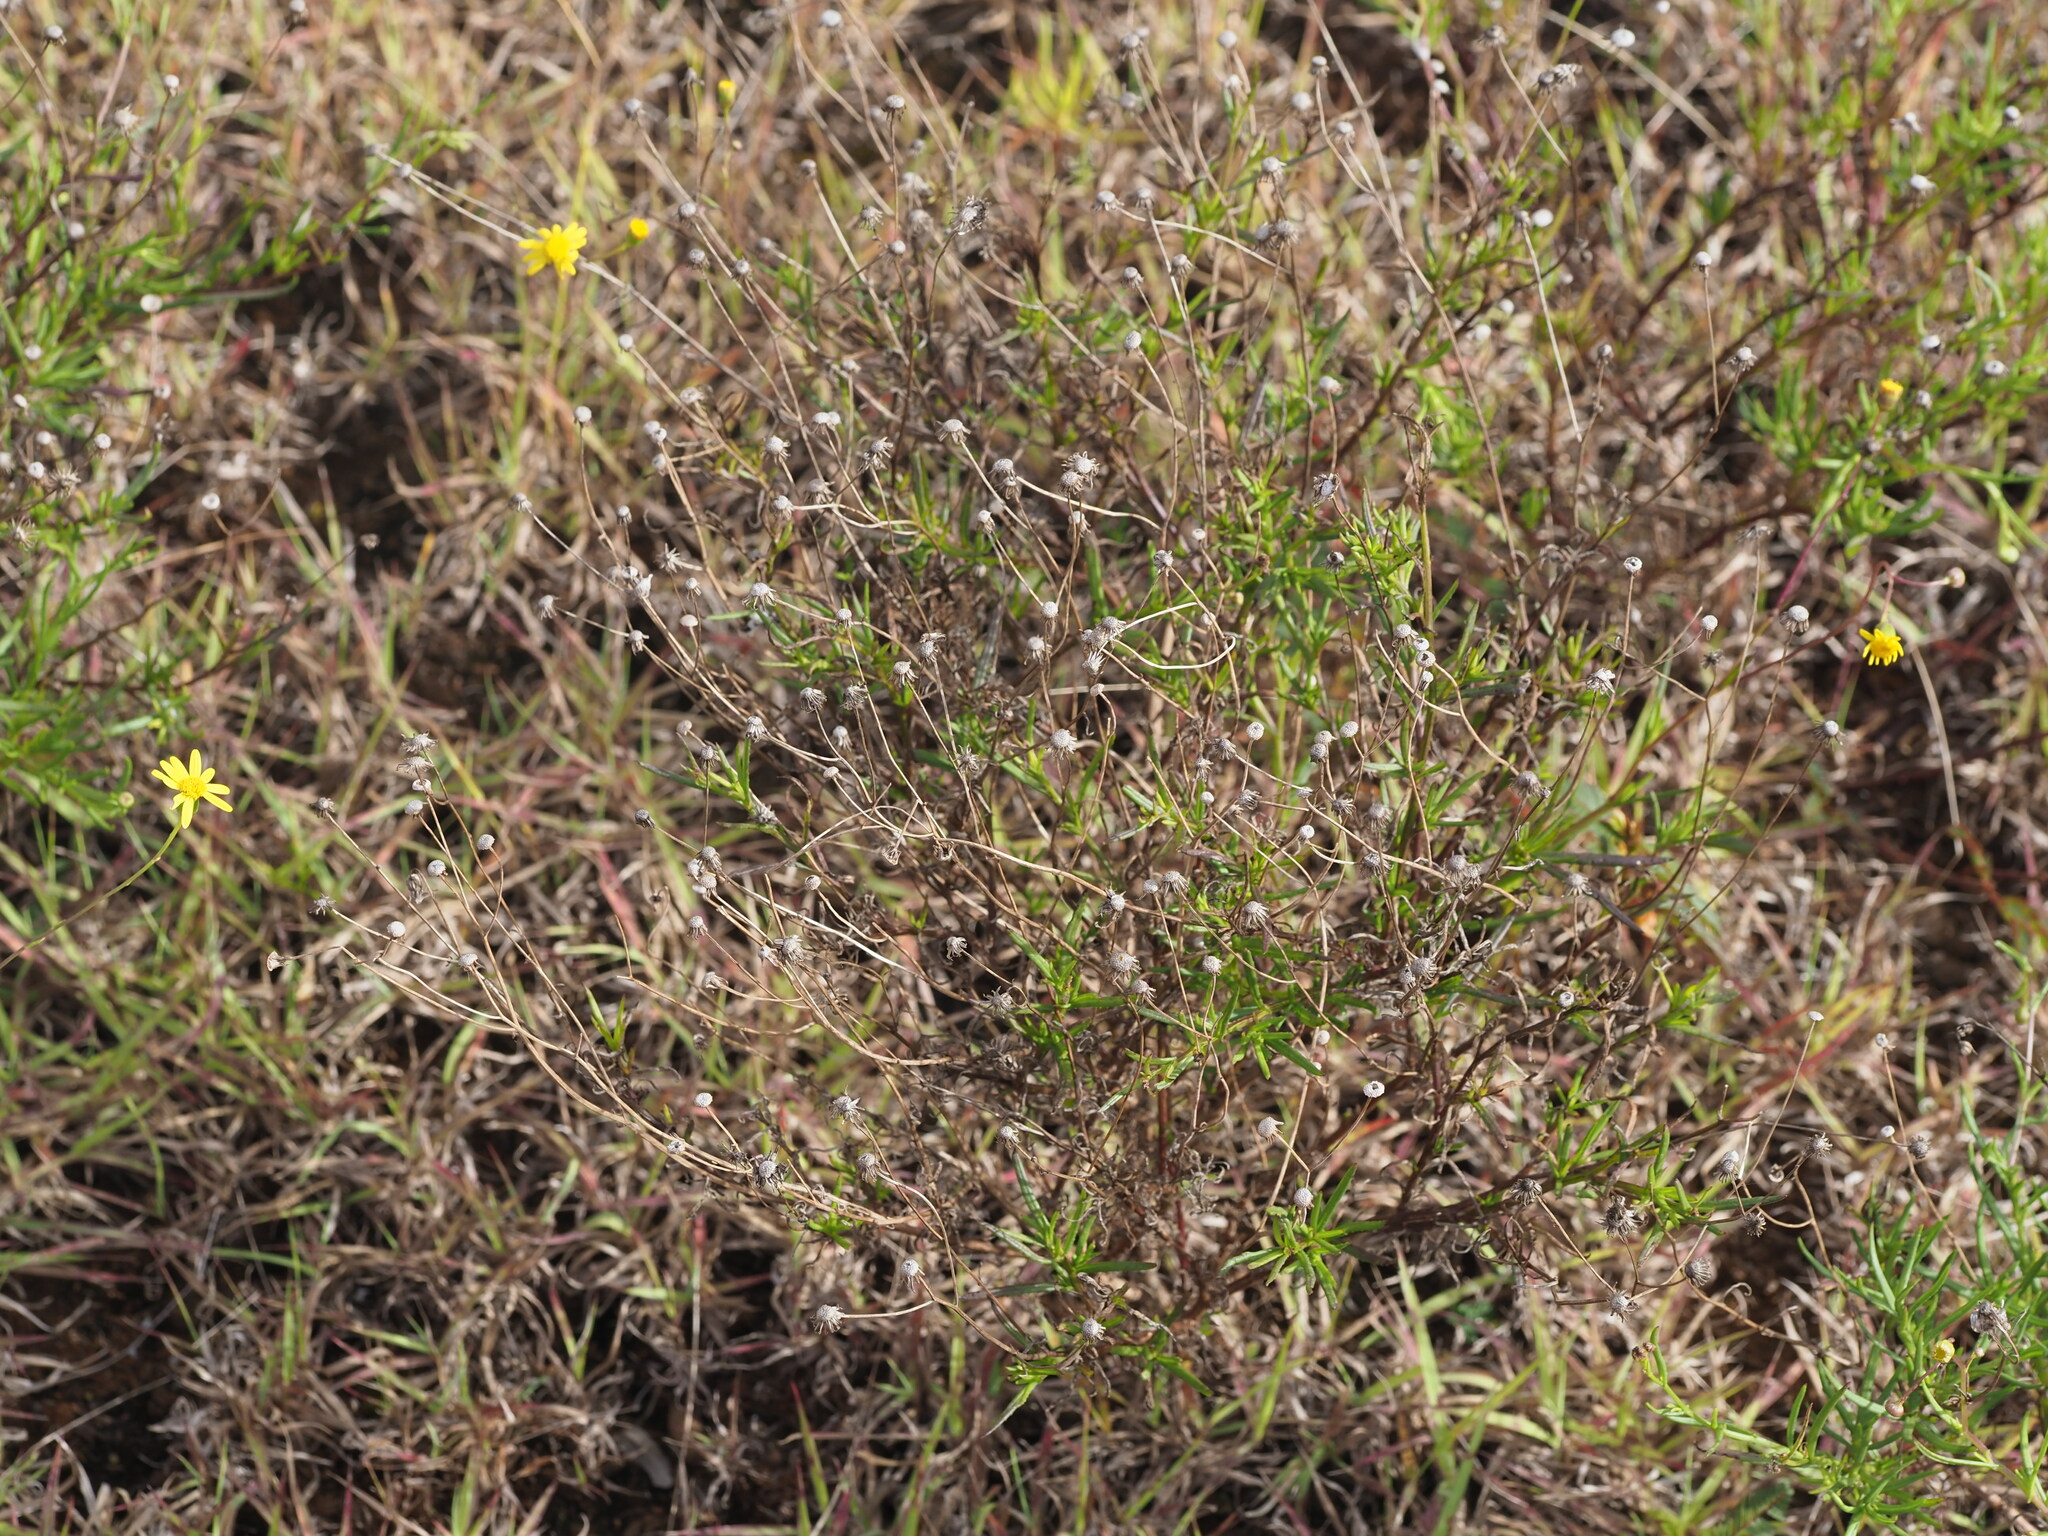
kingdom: Plantae
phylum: Tracheophyta
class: Magnoliopsida
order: Asterales
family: Asteraceae
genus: Senecio
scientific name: Senecio madagascariensis
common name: Madagascar ragwort
